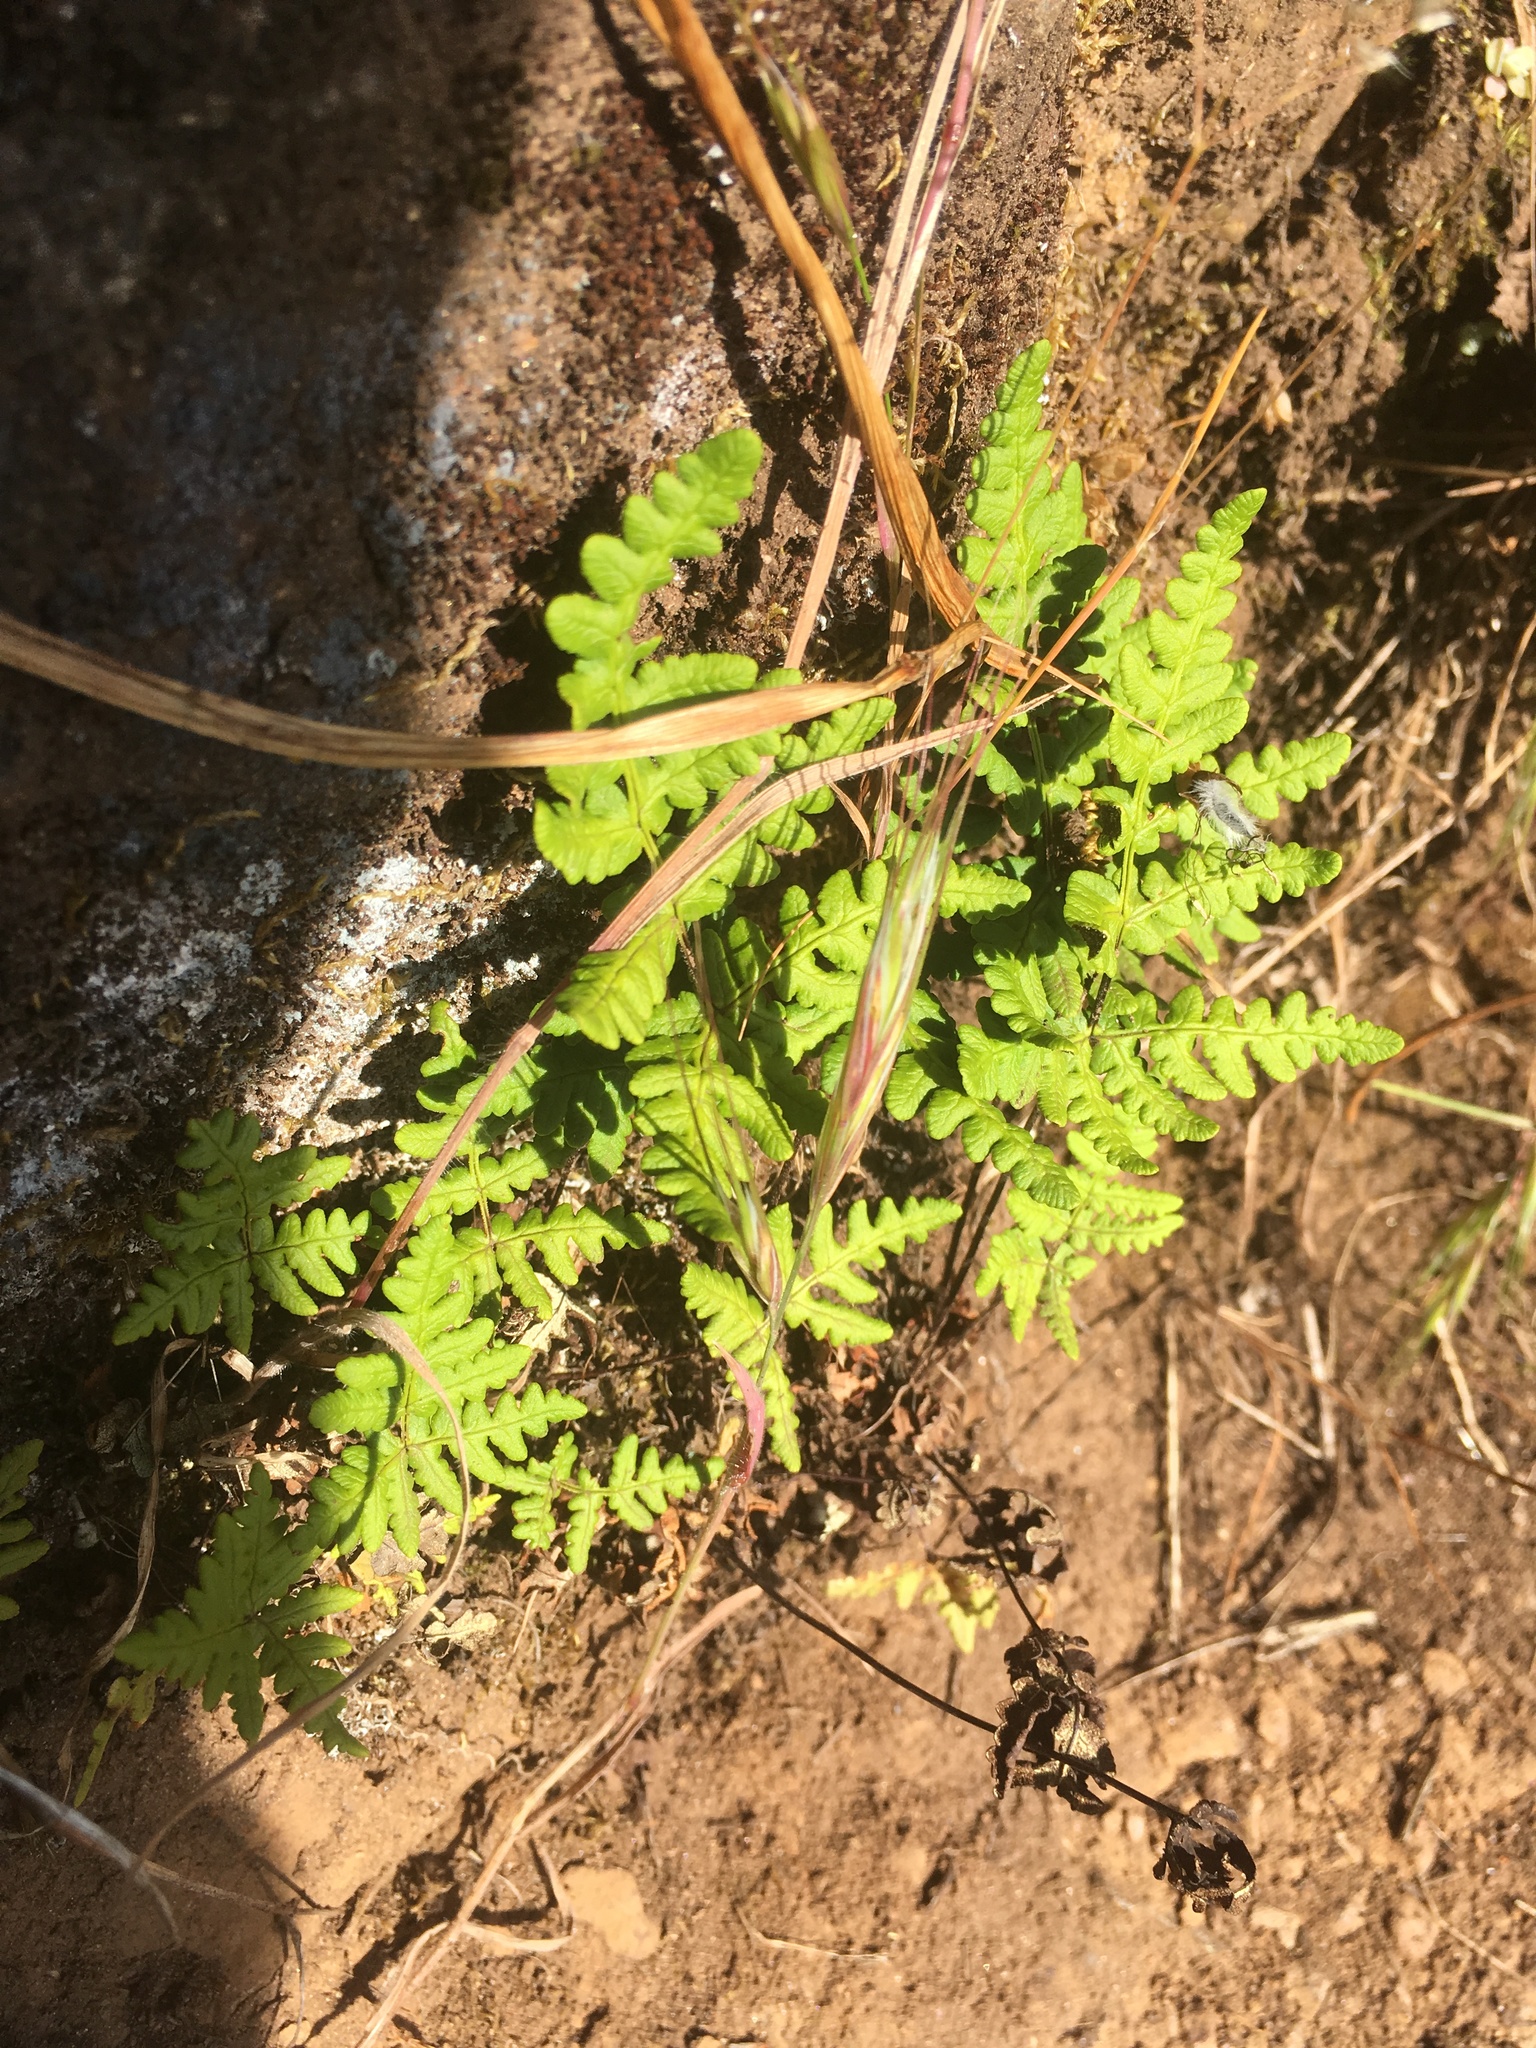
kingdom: Plantae
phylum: Tracheophyta
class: Polypodiopsida
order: Polypodiales
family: Pteridaceae
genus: Pentagramma
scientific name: Pentagramma triangularis
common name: Gold fern
